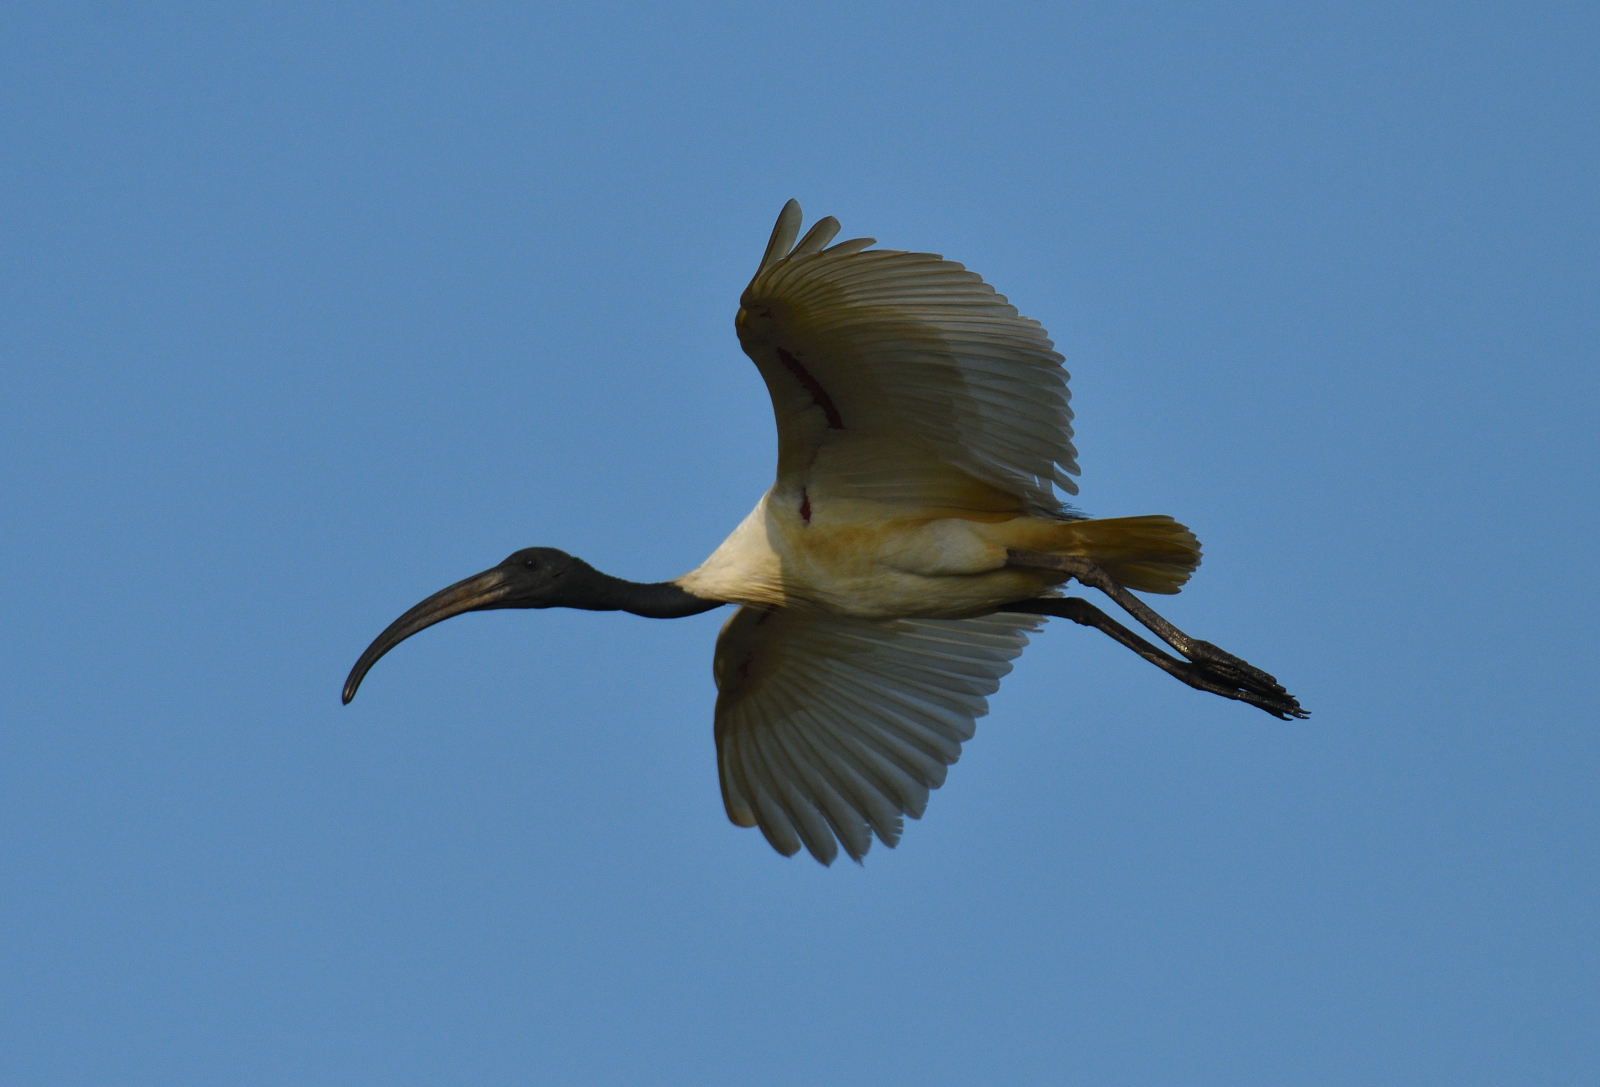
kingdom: Animalia
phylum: Chordata
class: Aves
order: Pelecaniformes
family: Threskiornithidae
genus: Threskiornis
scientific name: Threskiornis melanocephalus
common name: Black-headed ibis
